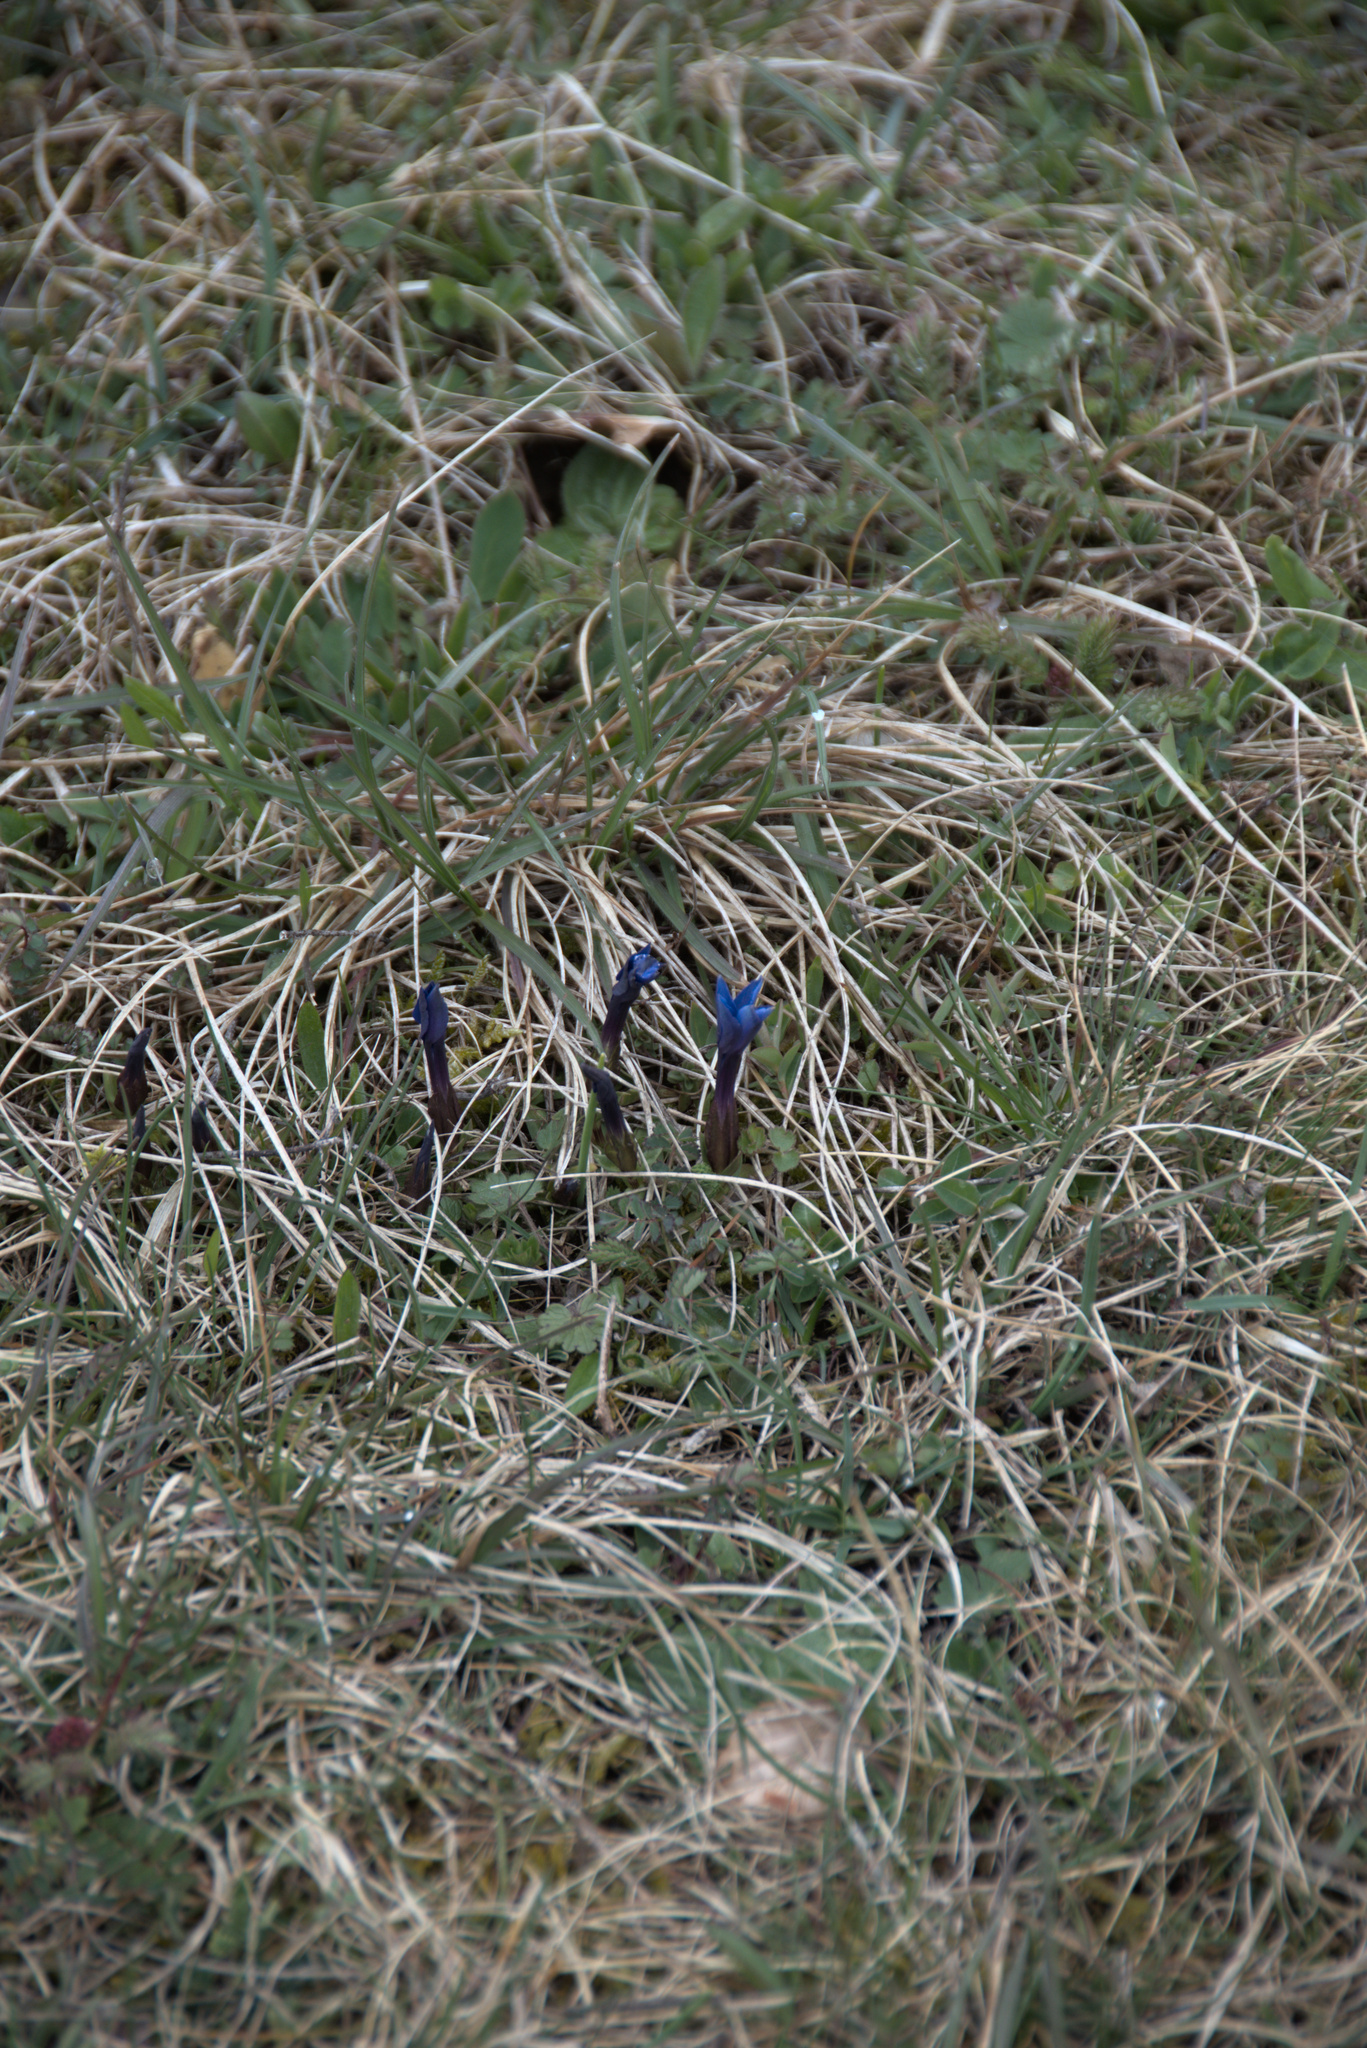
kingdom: Plantae
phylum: Tracheophyta
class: Magnoliopsida
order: Gentianales
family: Gentianaceae
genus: Gentiana
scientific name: Gentiana verna
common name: Spring gentian
